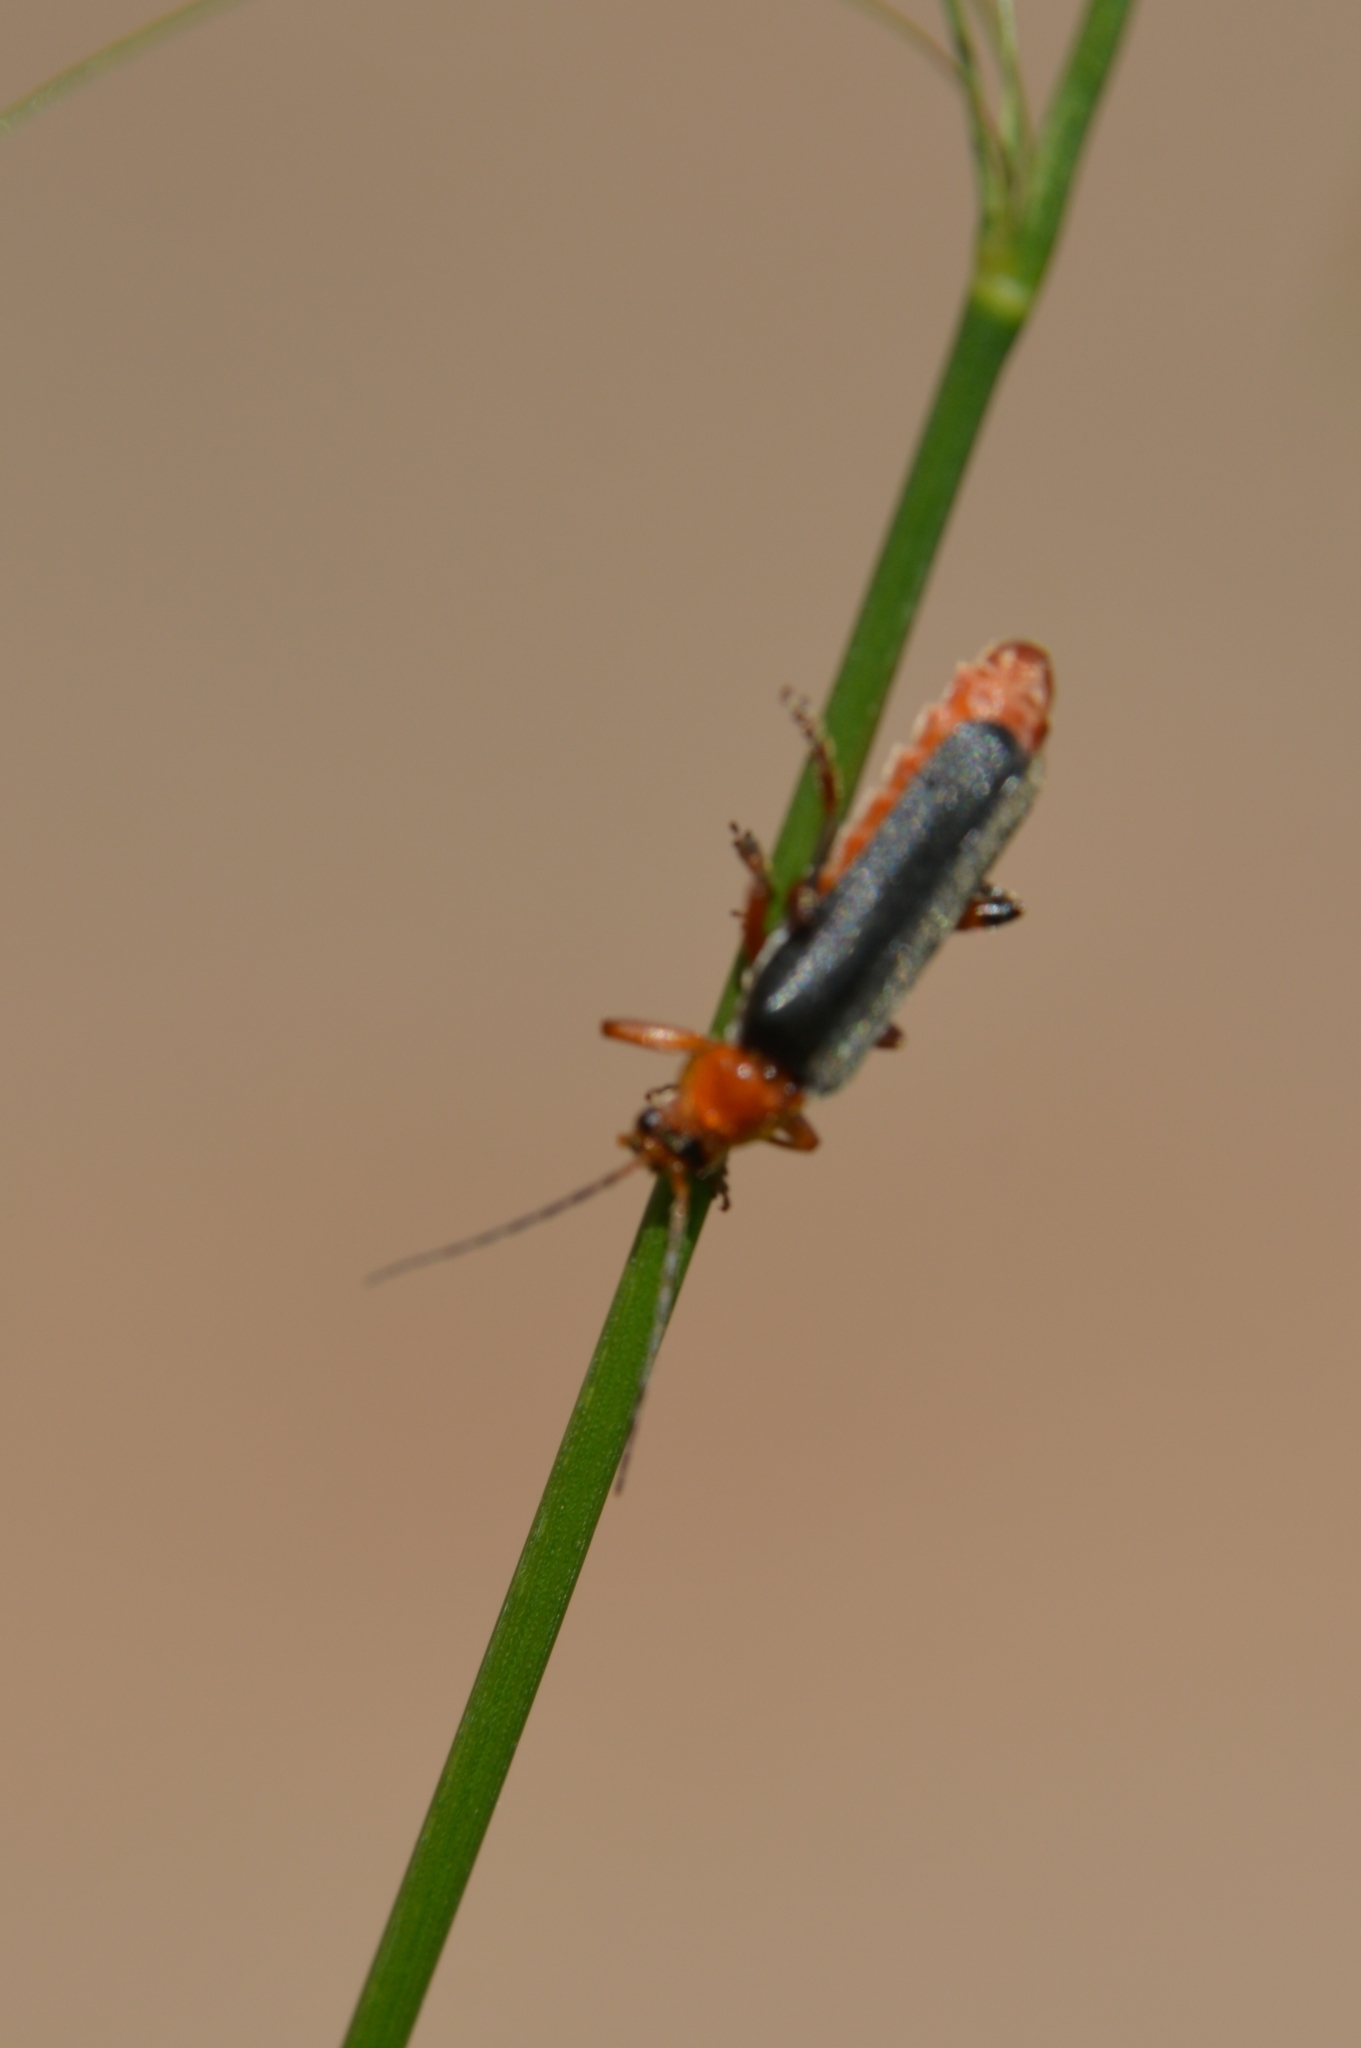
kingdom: Animalia
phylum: Arthropoda
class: Insecta
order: Coleoptera
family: Cantharidae
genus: Cantharis
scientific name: Cantharis livida
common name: Livid soldier beetle
